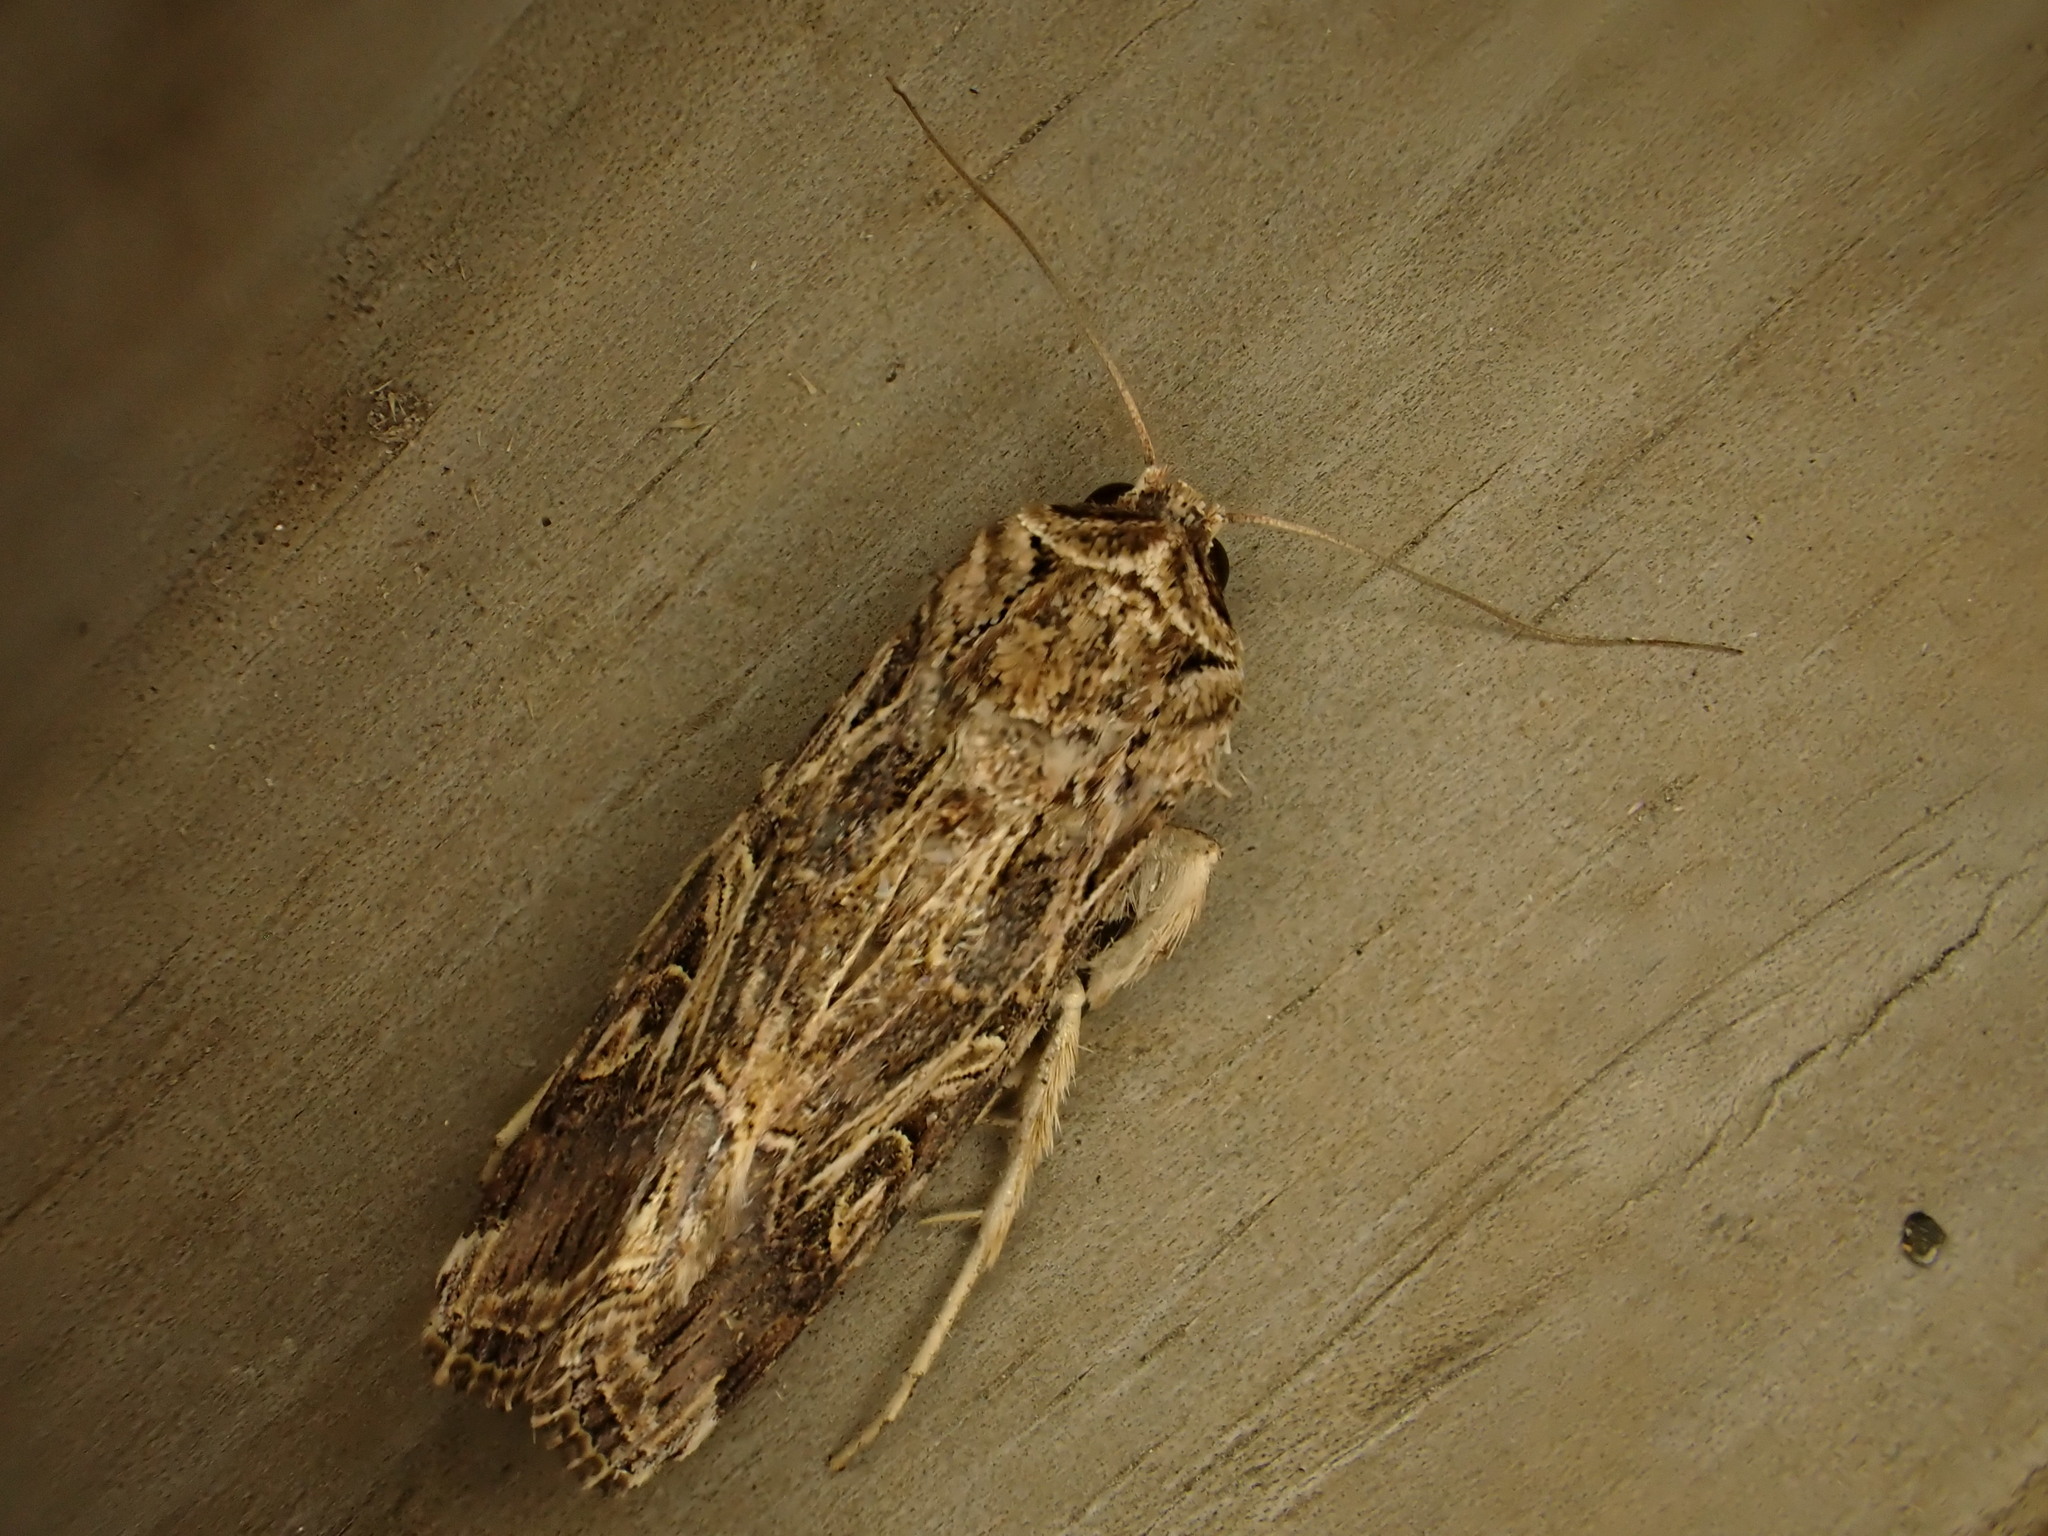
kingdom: Animalia
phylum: Arthropoda
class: Insecta
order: Lepidoptera
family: Noctuidae
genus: Spodoptera
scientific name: Spodoptera litura
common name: Asian cotton leafworm
